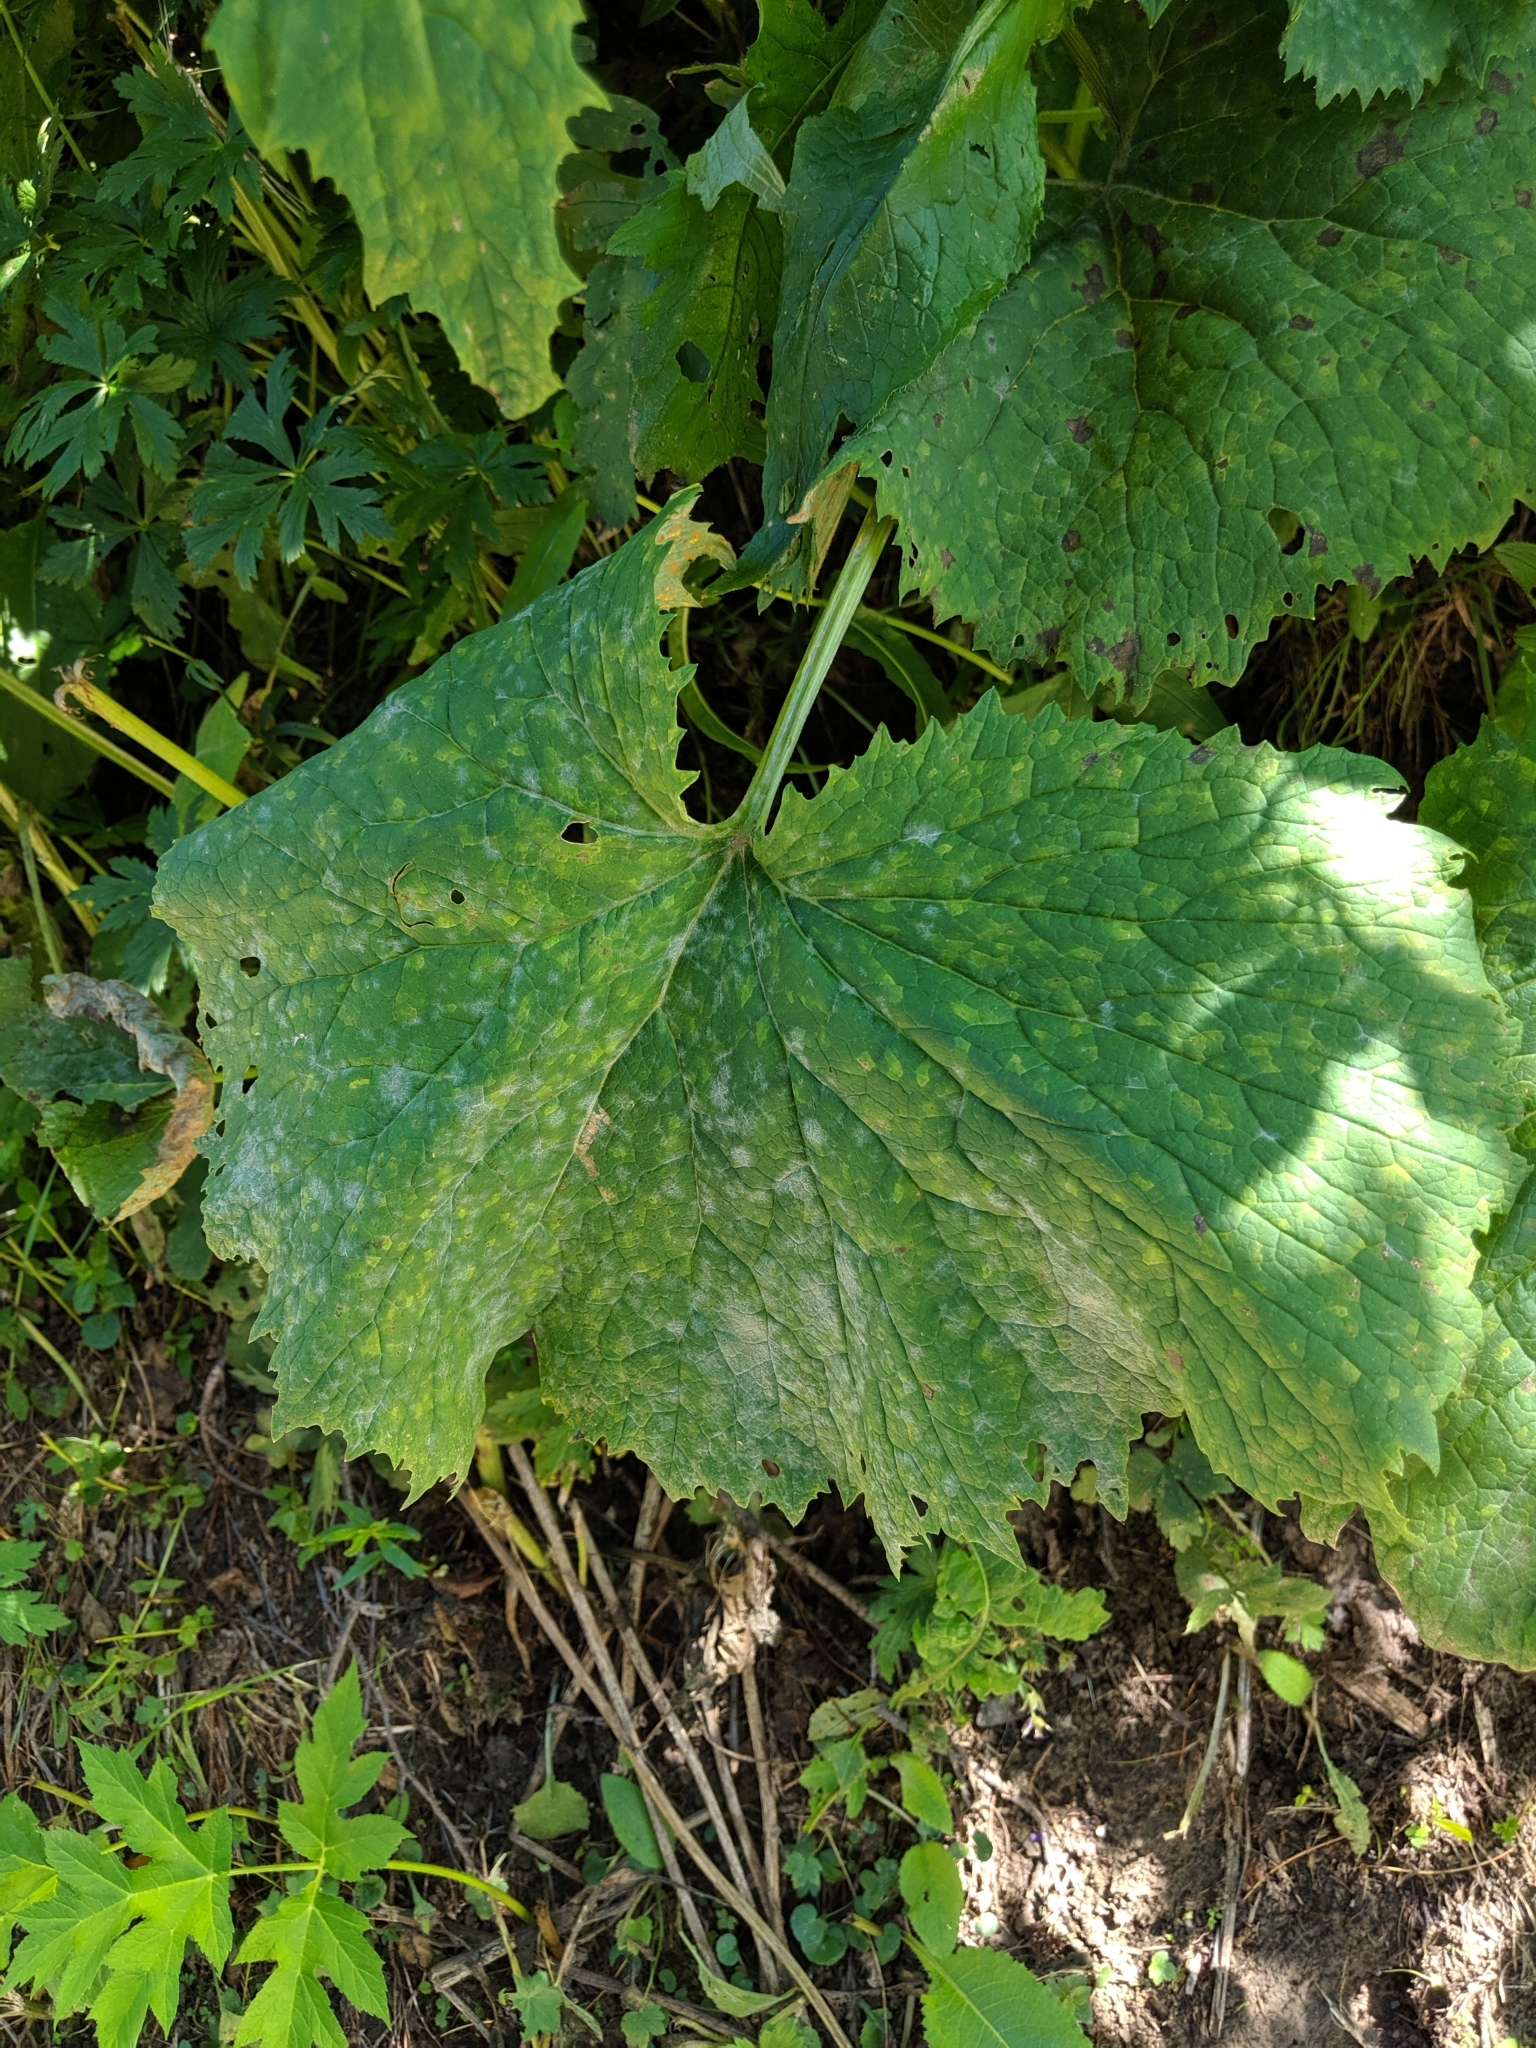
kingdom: Plantae
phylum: Tracheophyta
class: Magnoliopsida
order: Asterales
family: Asteraceae
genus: Adenostyles
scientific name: Adenostyles alliariae
